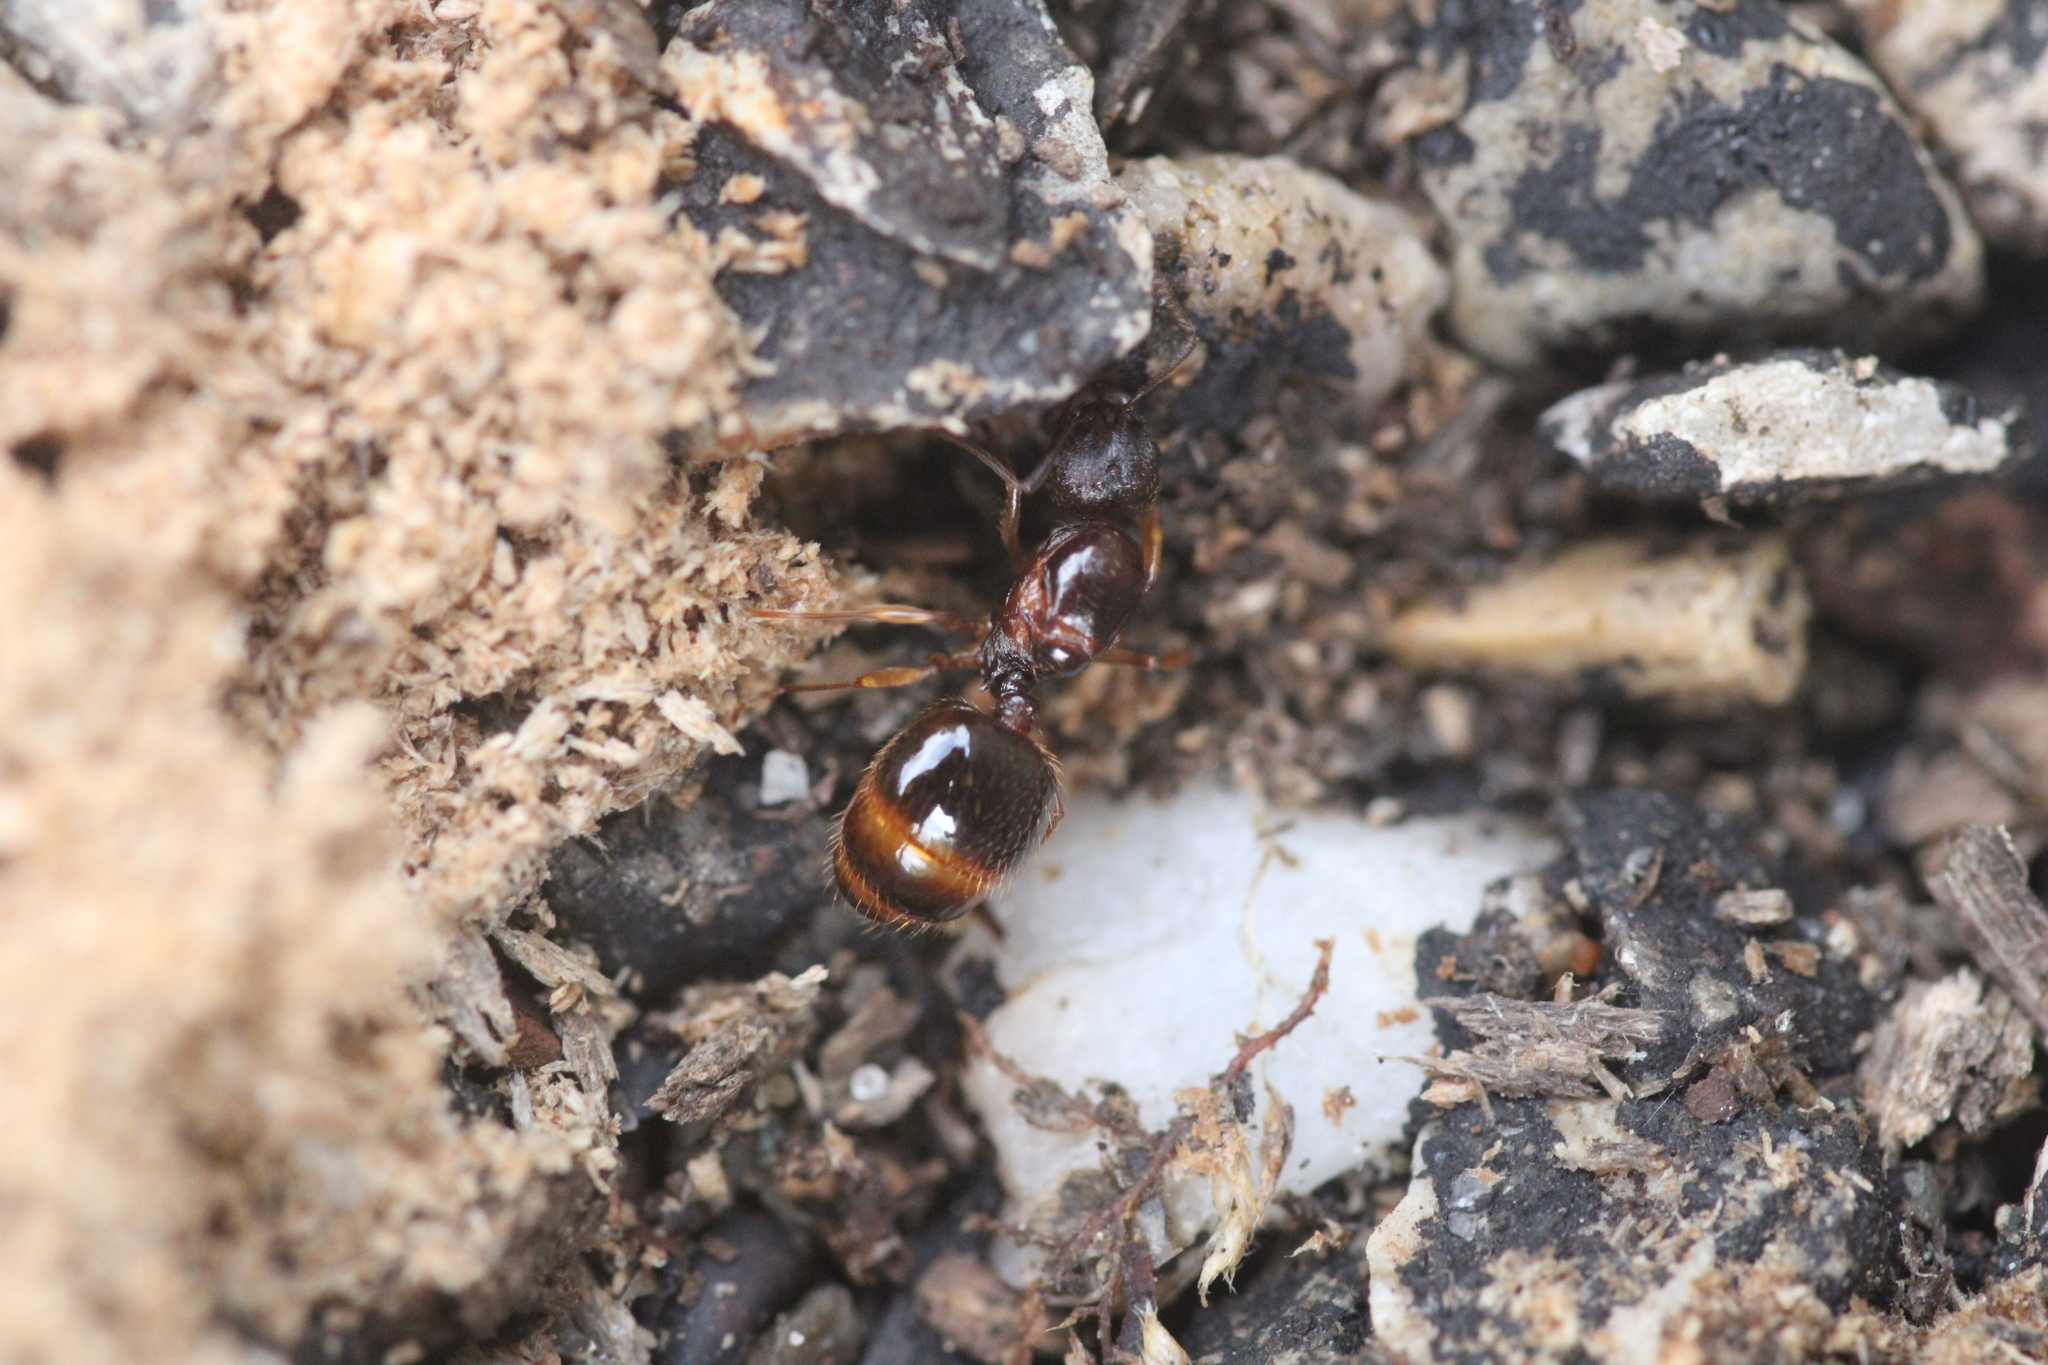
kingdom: Animalia
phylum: Arthropoda
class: Insecta
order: Hymenoptera
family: Formicidae
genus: Aphaenogaster
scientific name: Aphaenogaster subterranea
